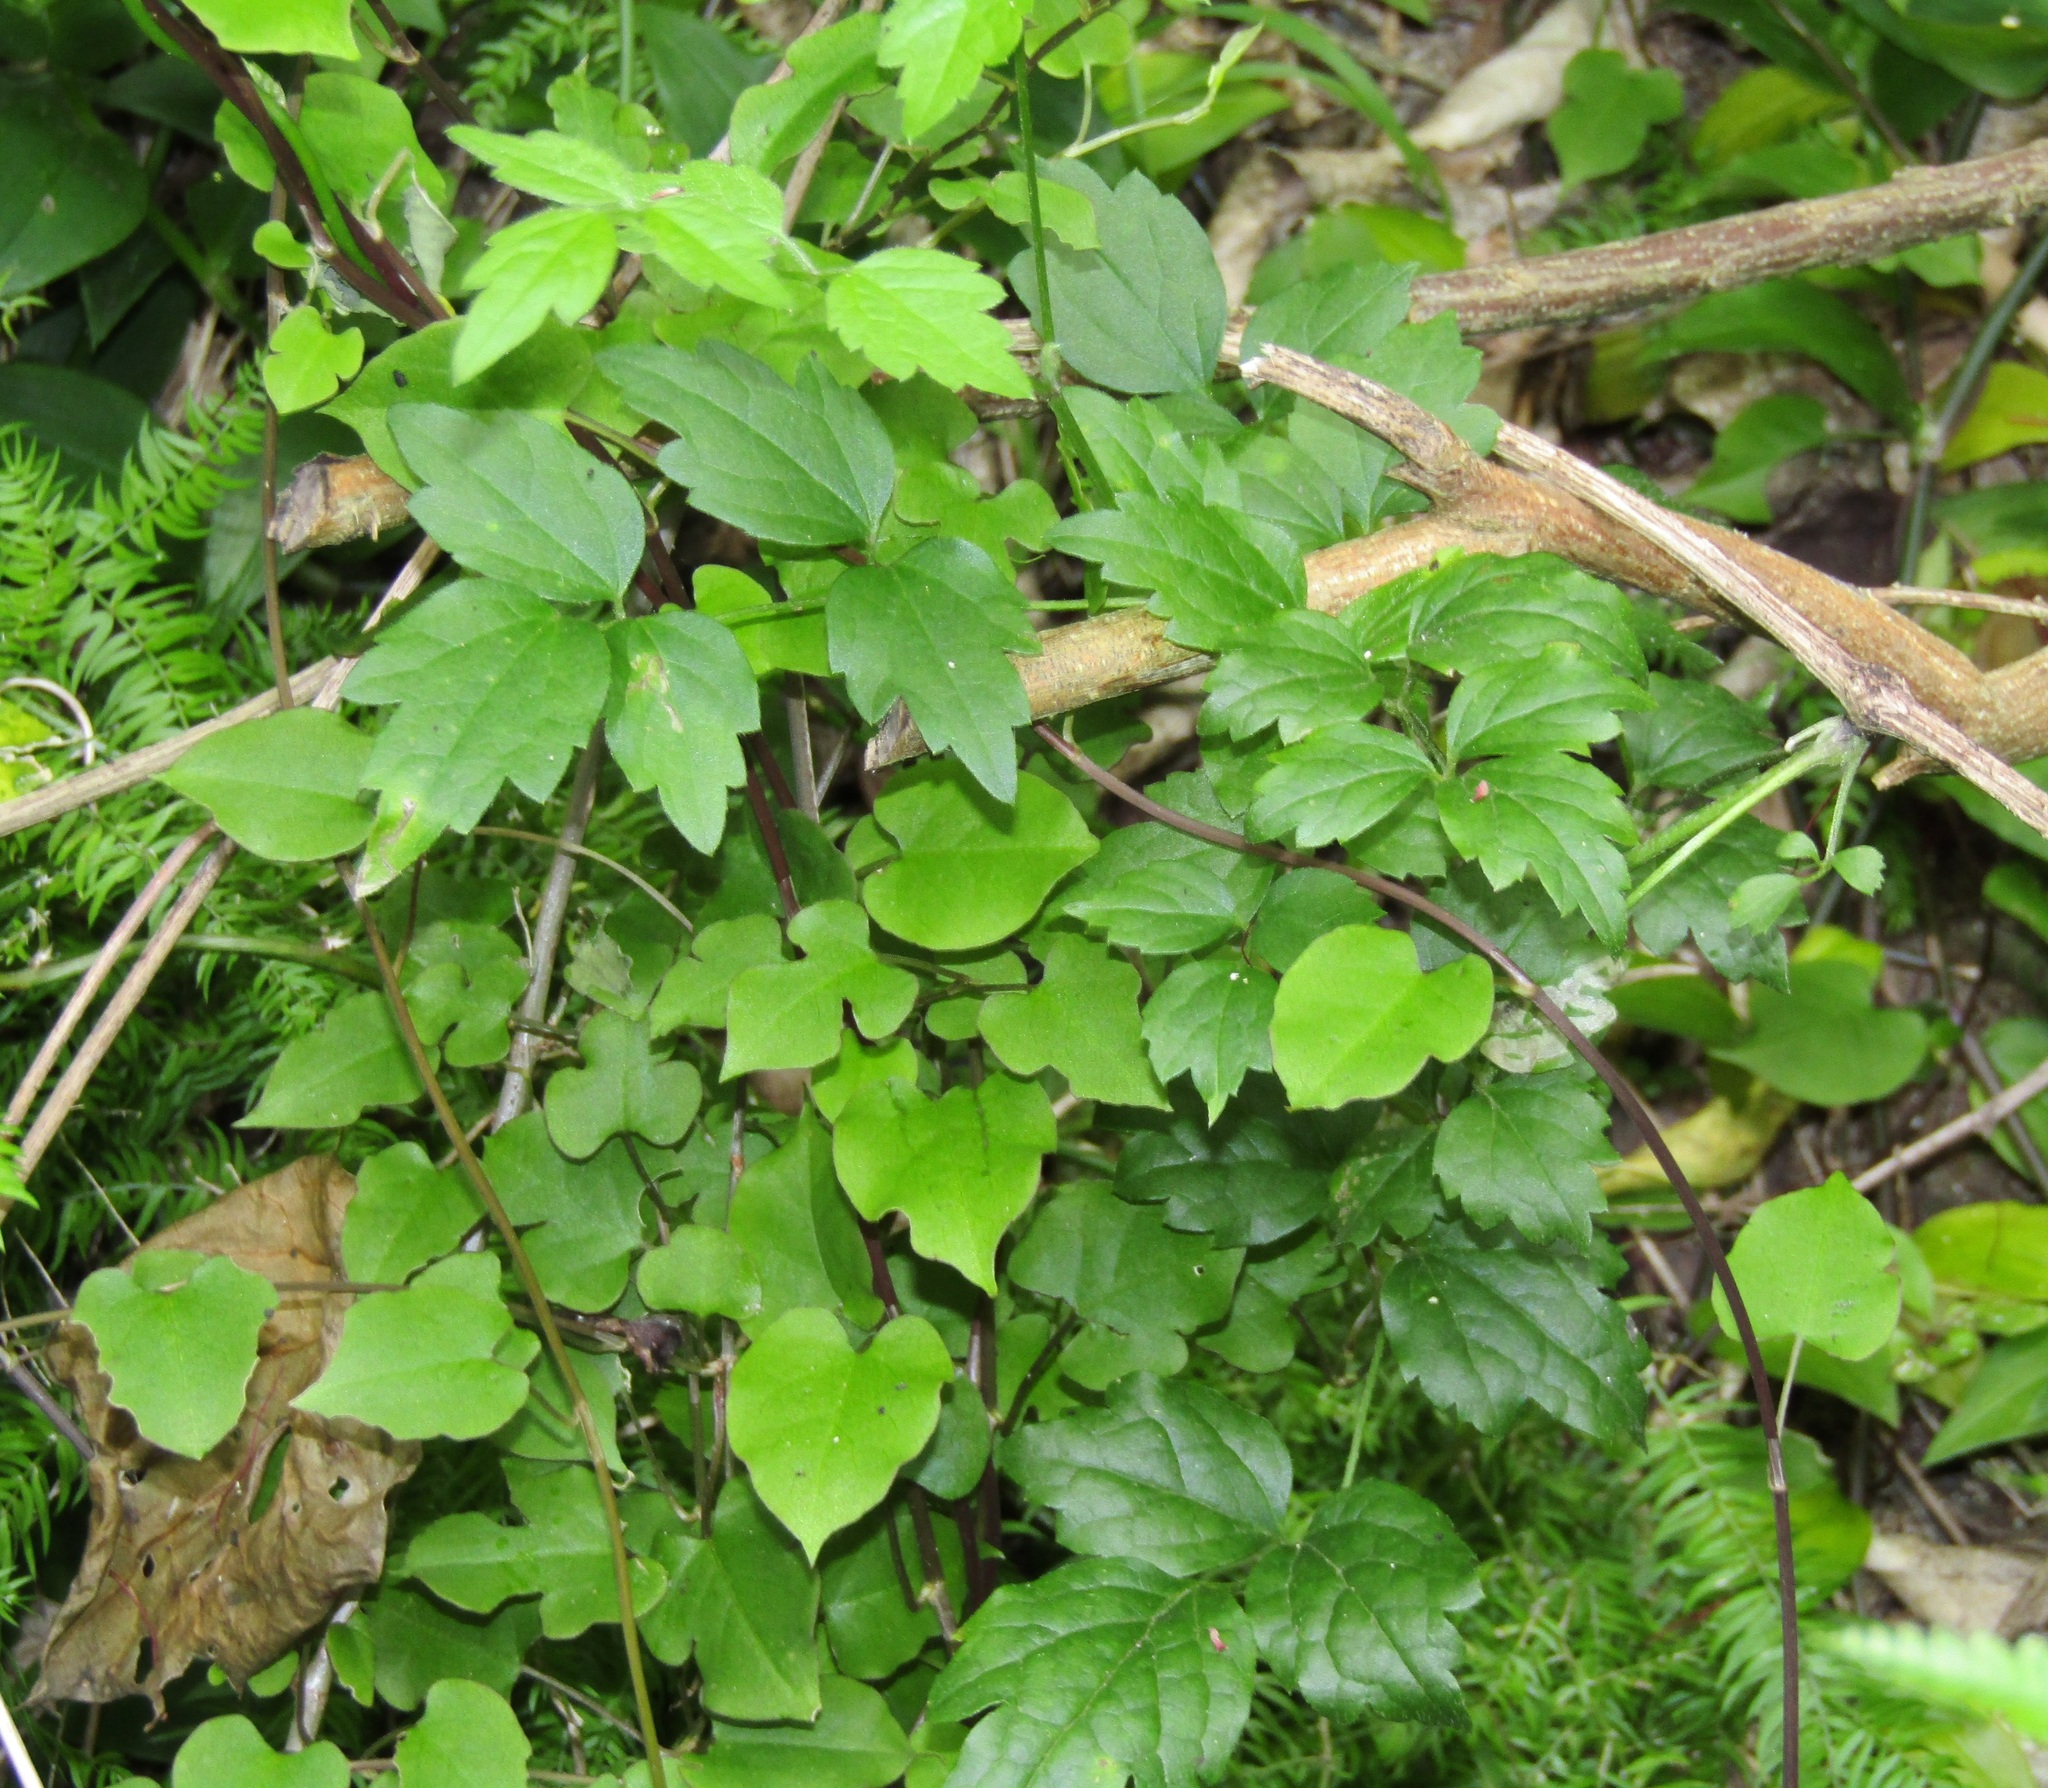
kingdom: Plantae
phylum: Tracheophyta
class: Magnoliopsida
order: Ranunculales
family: Ranunculaceae
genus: Clematis
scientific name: Clematis vitalba
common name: Evergreen clematis
